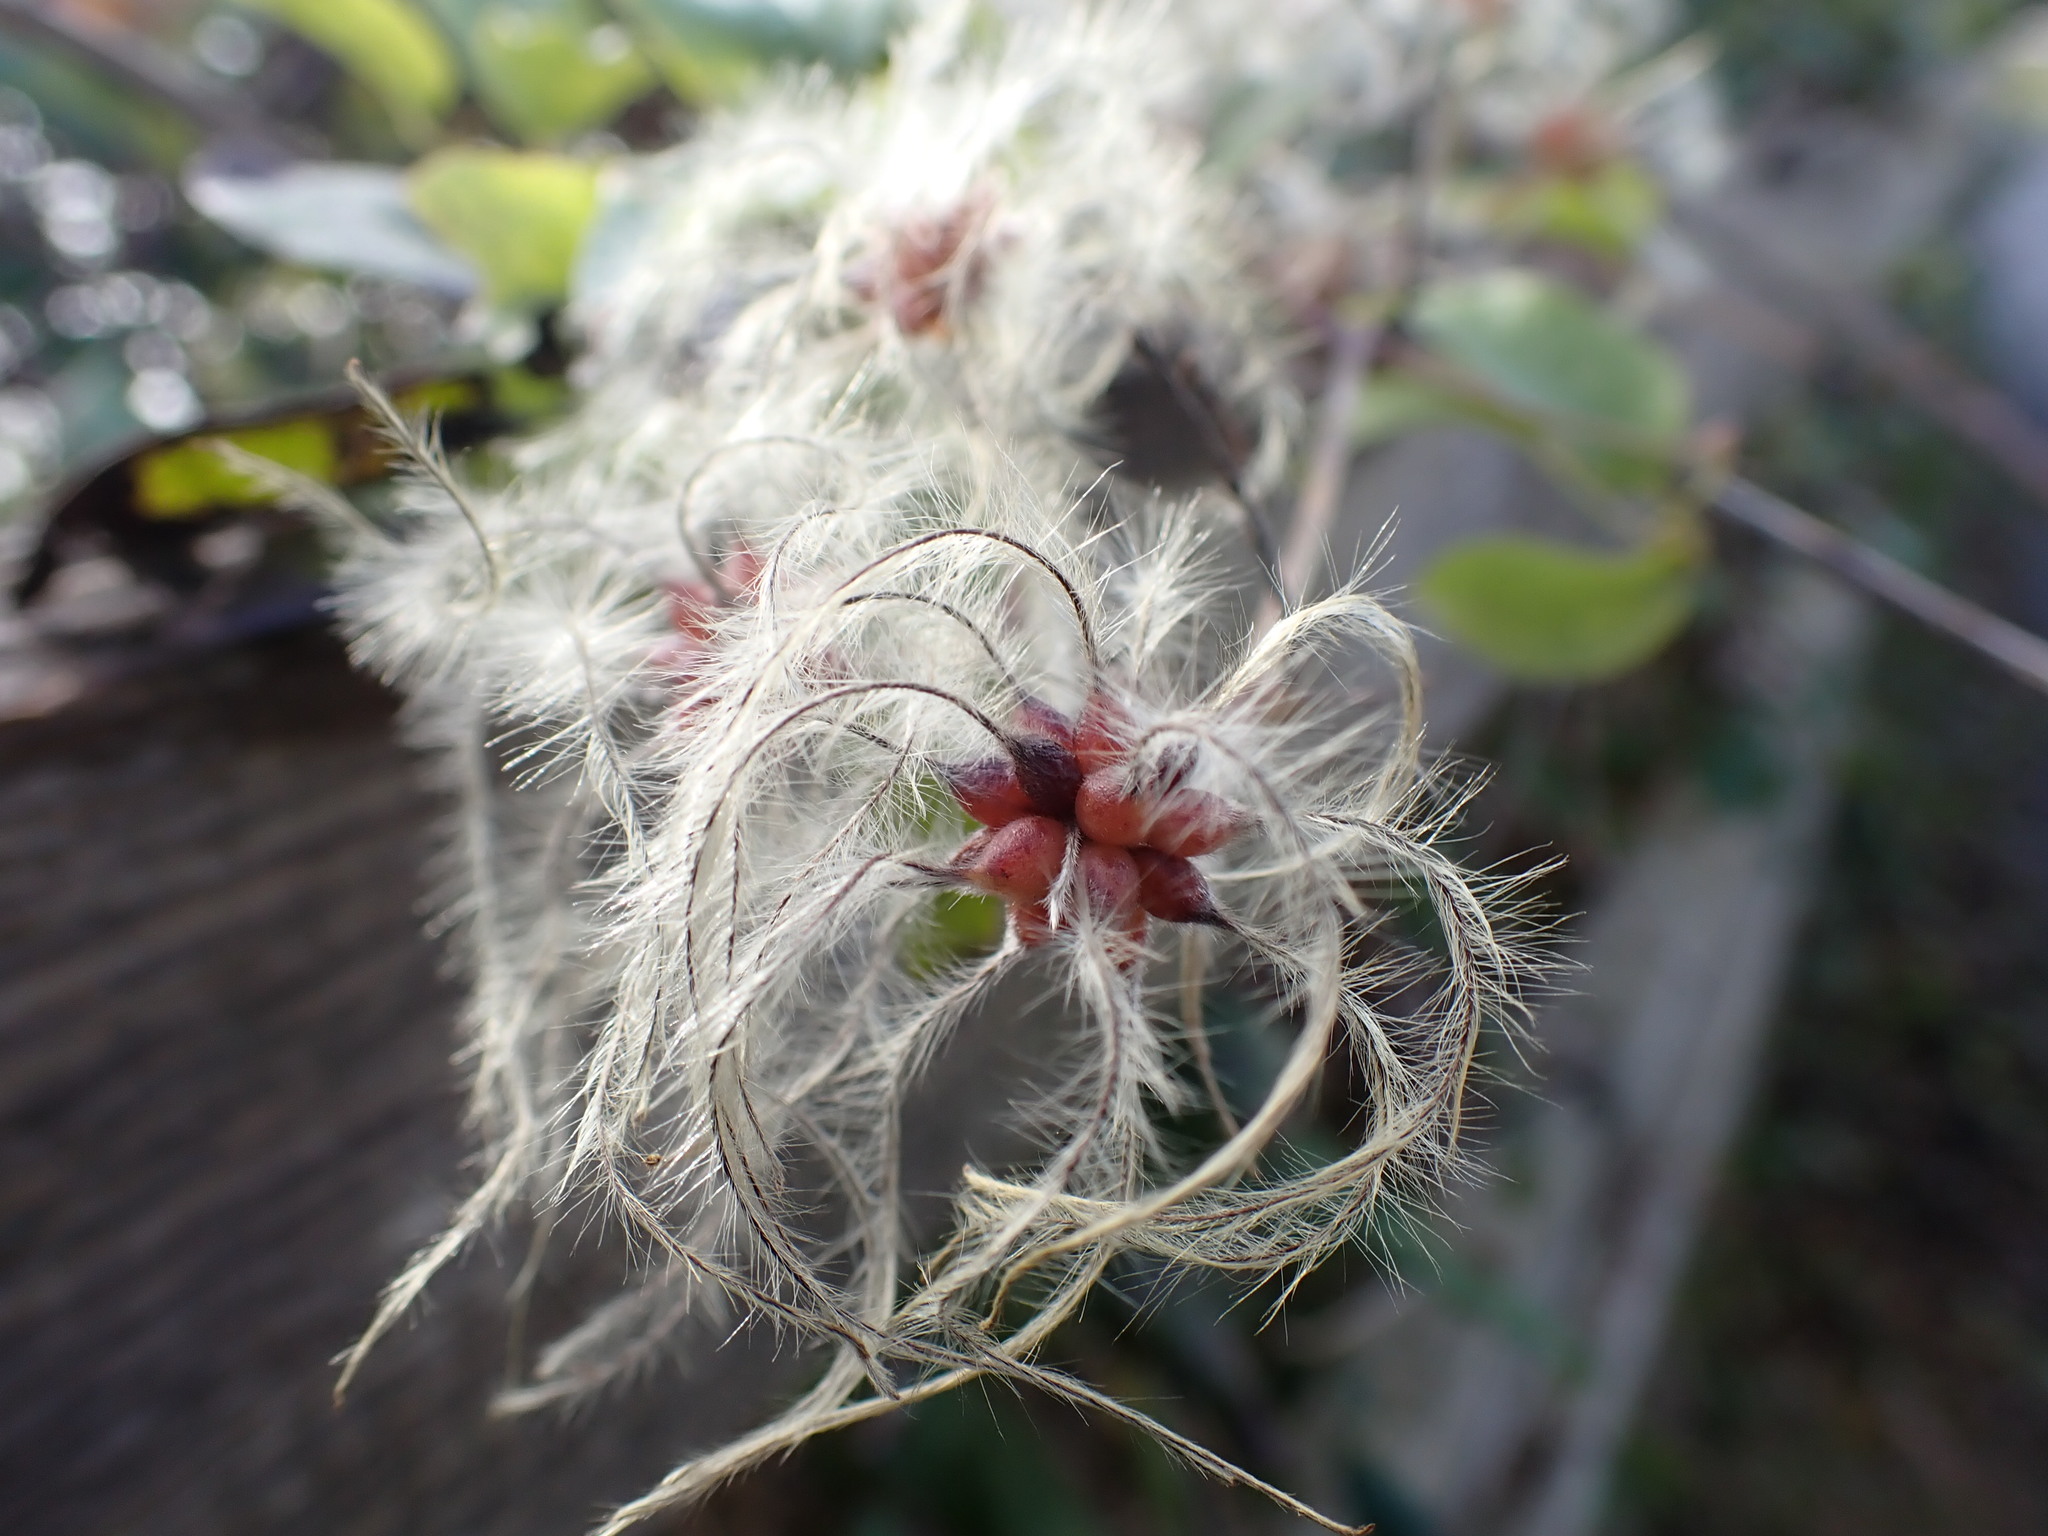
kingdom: Plantae
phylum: Tracheophyta
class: Magnoliopsida
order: Ranunculales
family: Ranunculaceae
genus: Clematis
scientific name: Clematis vitalba
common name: Evergreen clematis
